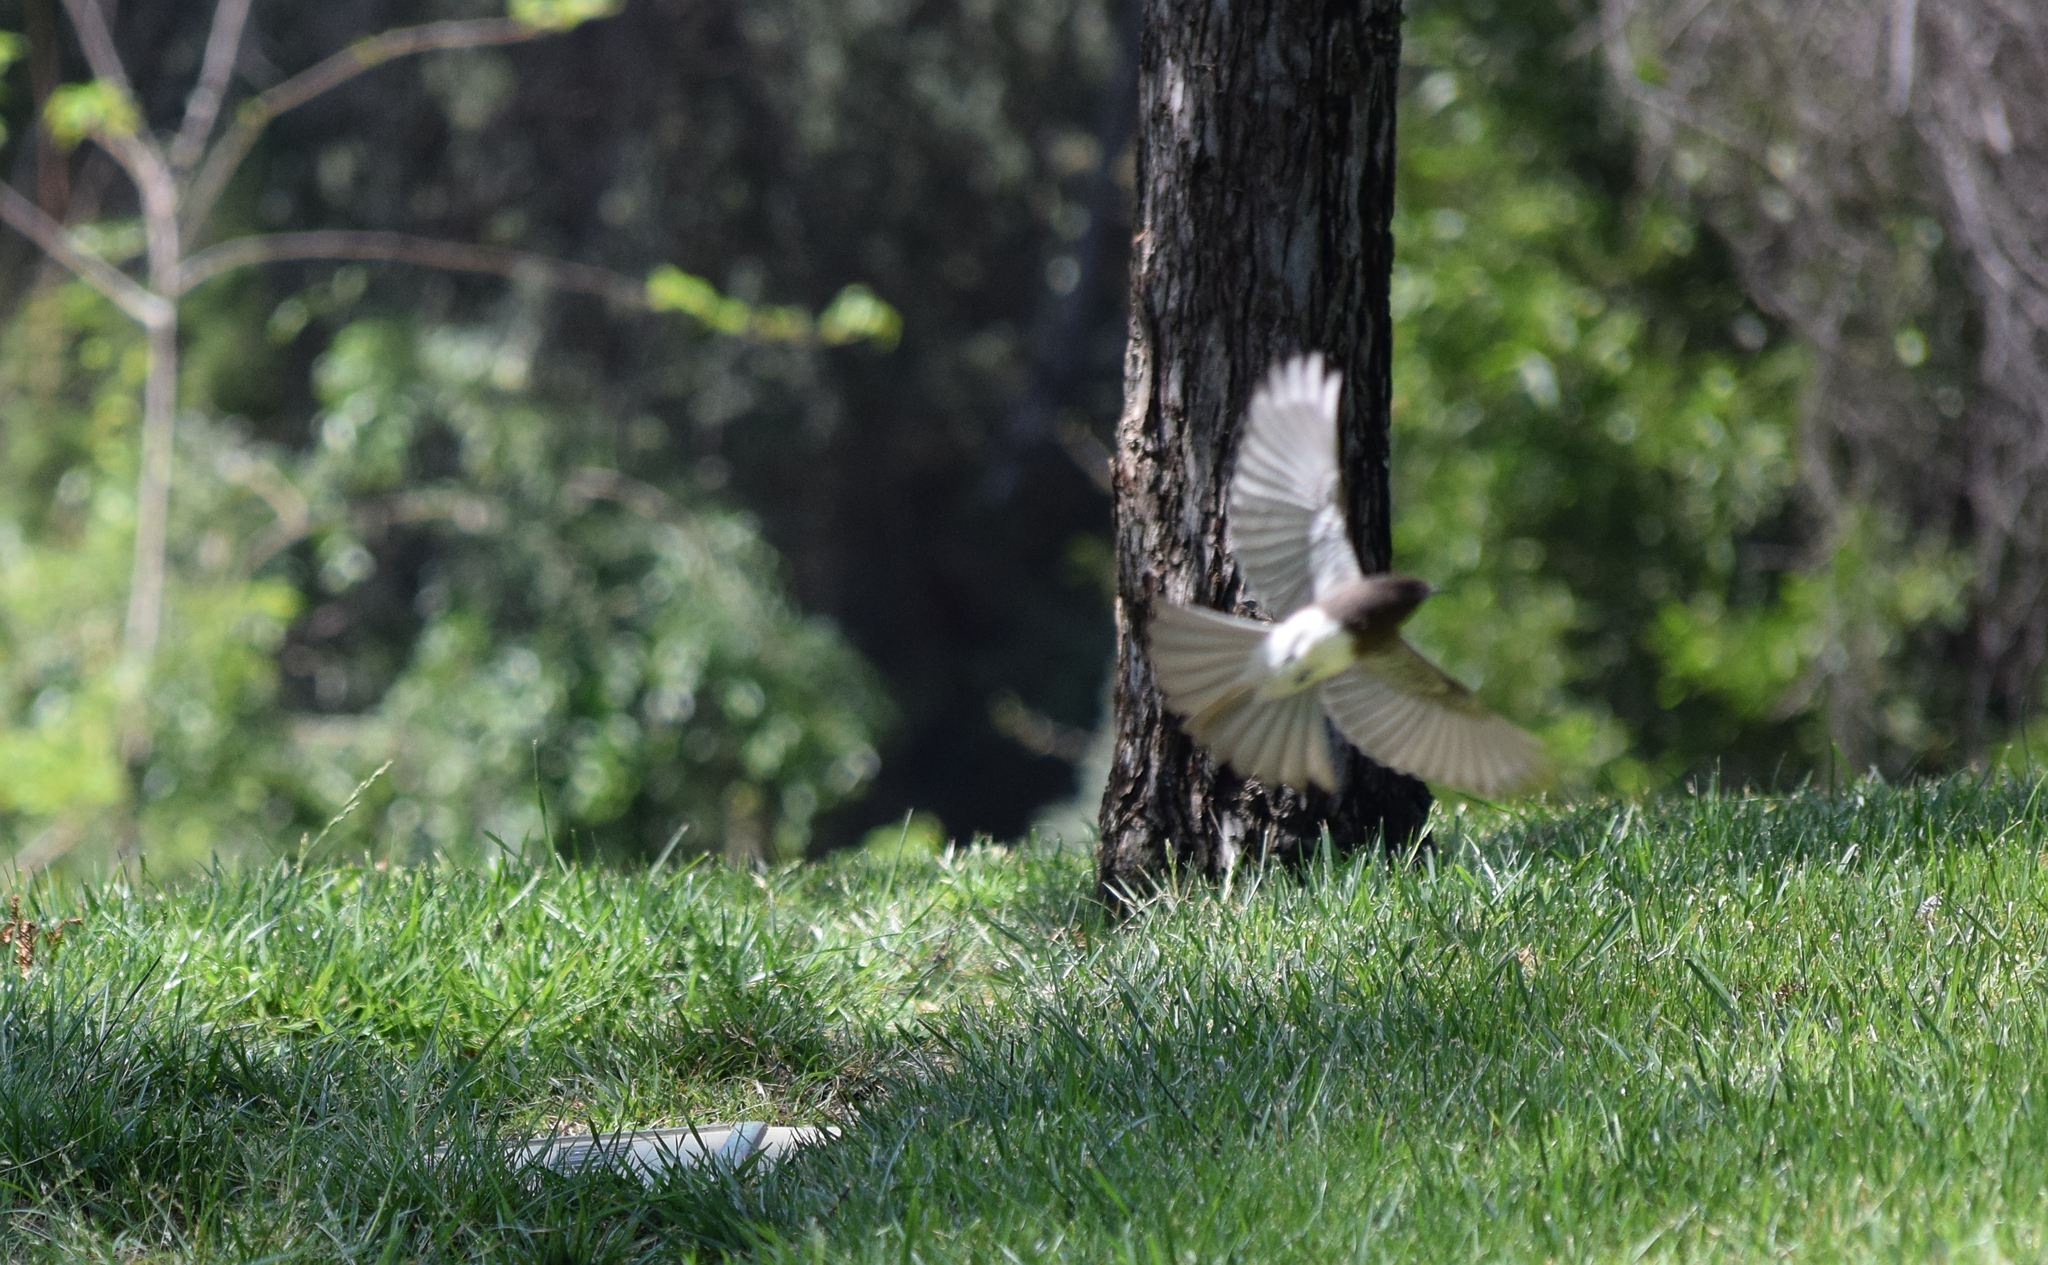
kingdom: Animalia
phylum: Chordata
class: Aves
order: Passeriformes
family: Tyrannidae
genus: Sayornis
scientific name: Sayornis nigricans
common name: Black phoebe
